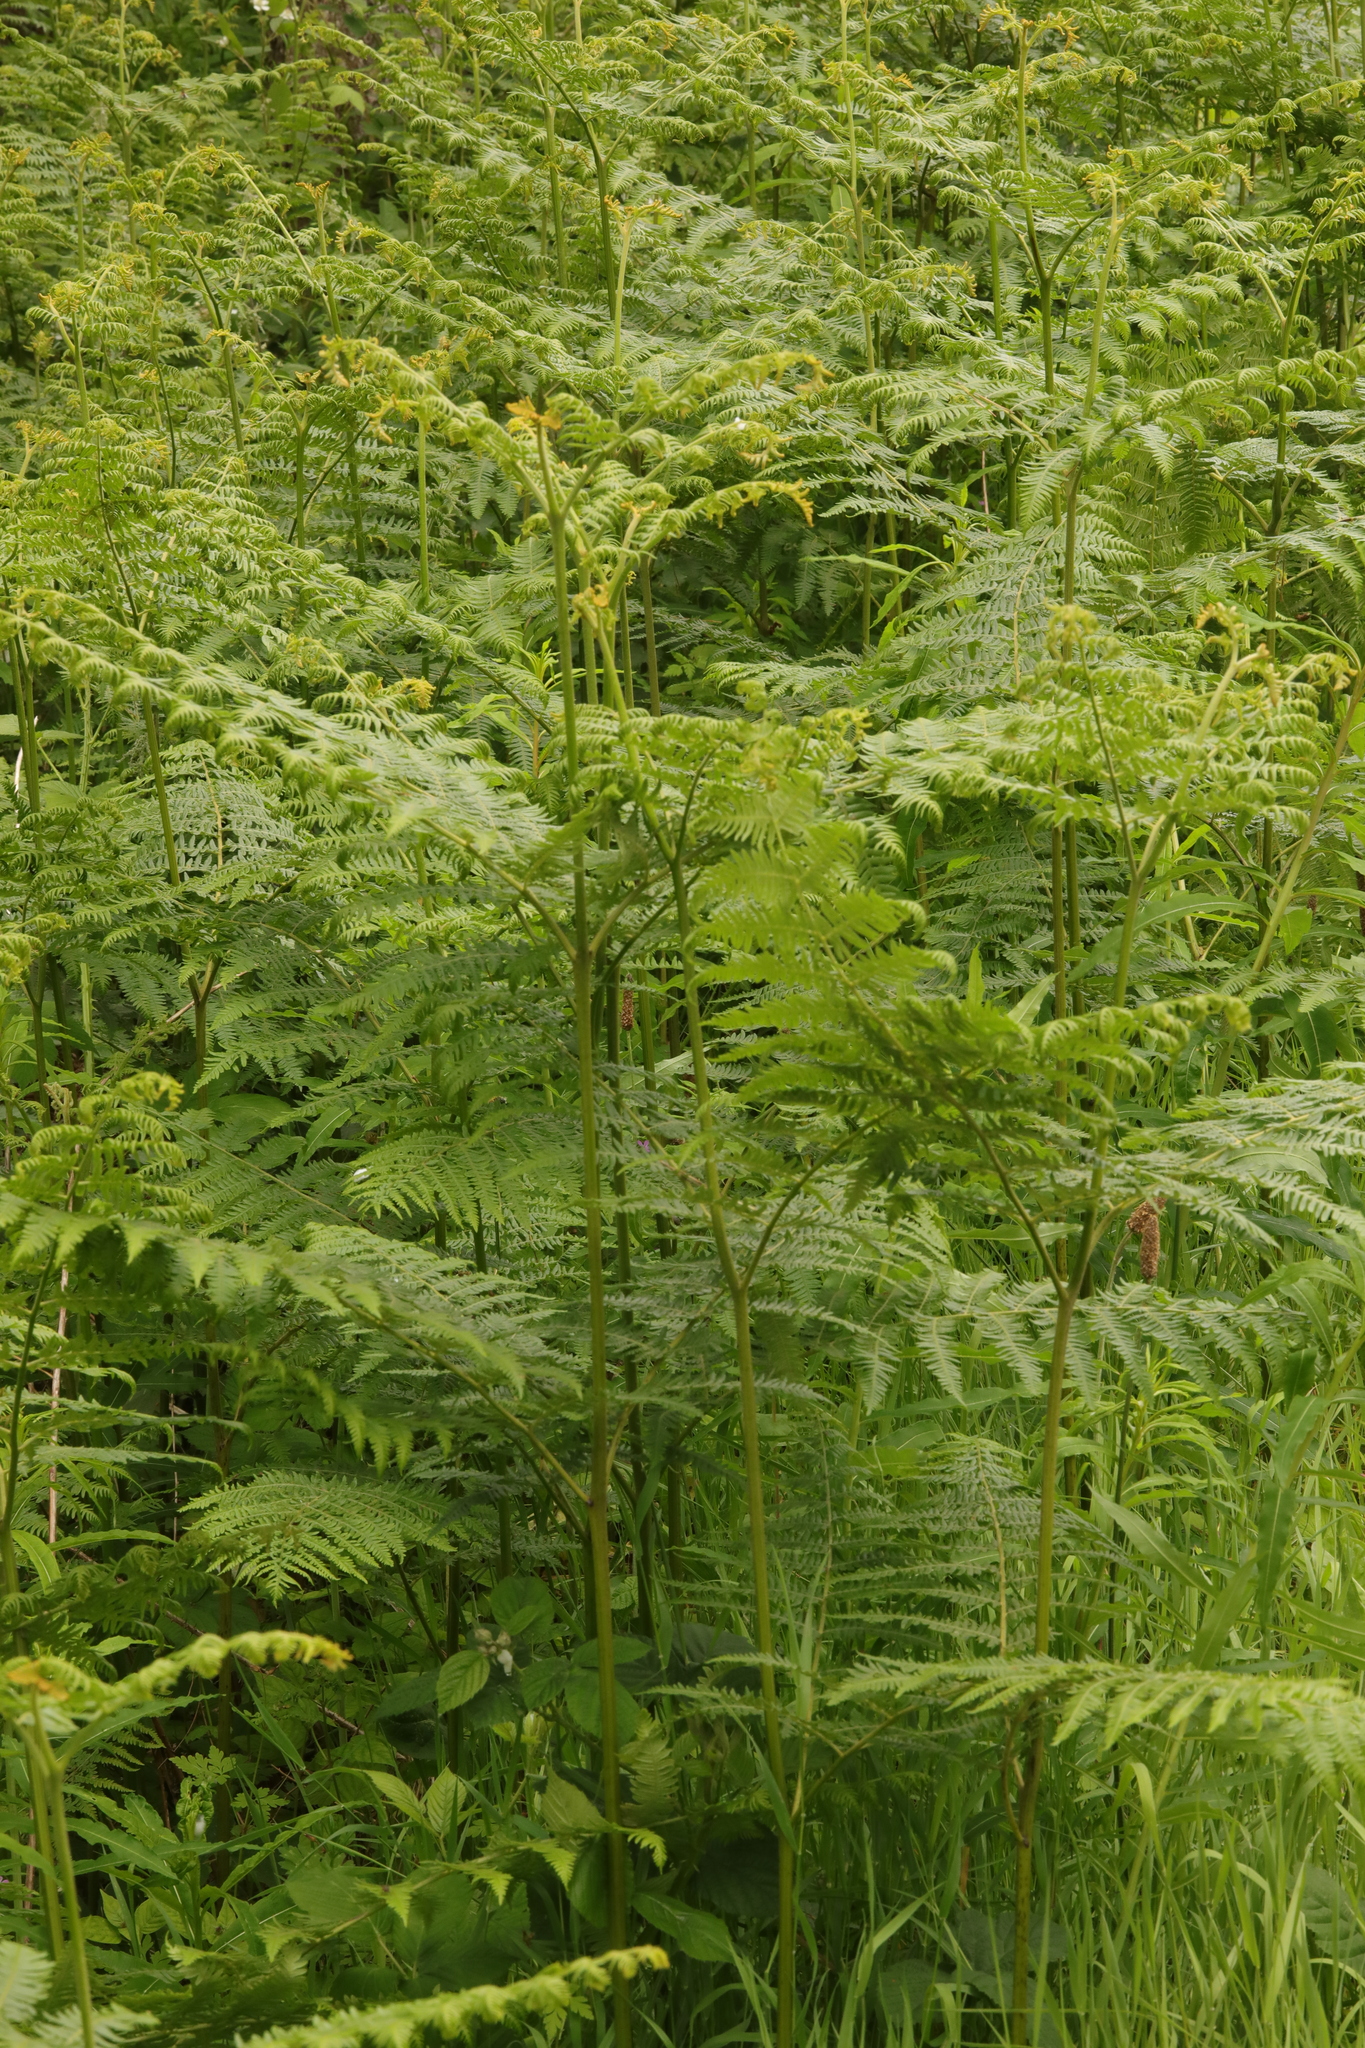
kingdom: Plantae
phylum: Tracheophyta
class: Polypodiopsida
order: Polypodiales
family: Dennstaedtiaceae
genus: Pteridium
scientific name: Pteridium aquilinum
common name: Bracken
